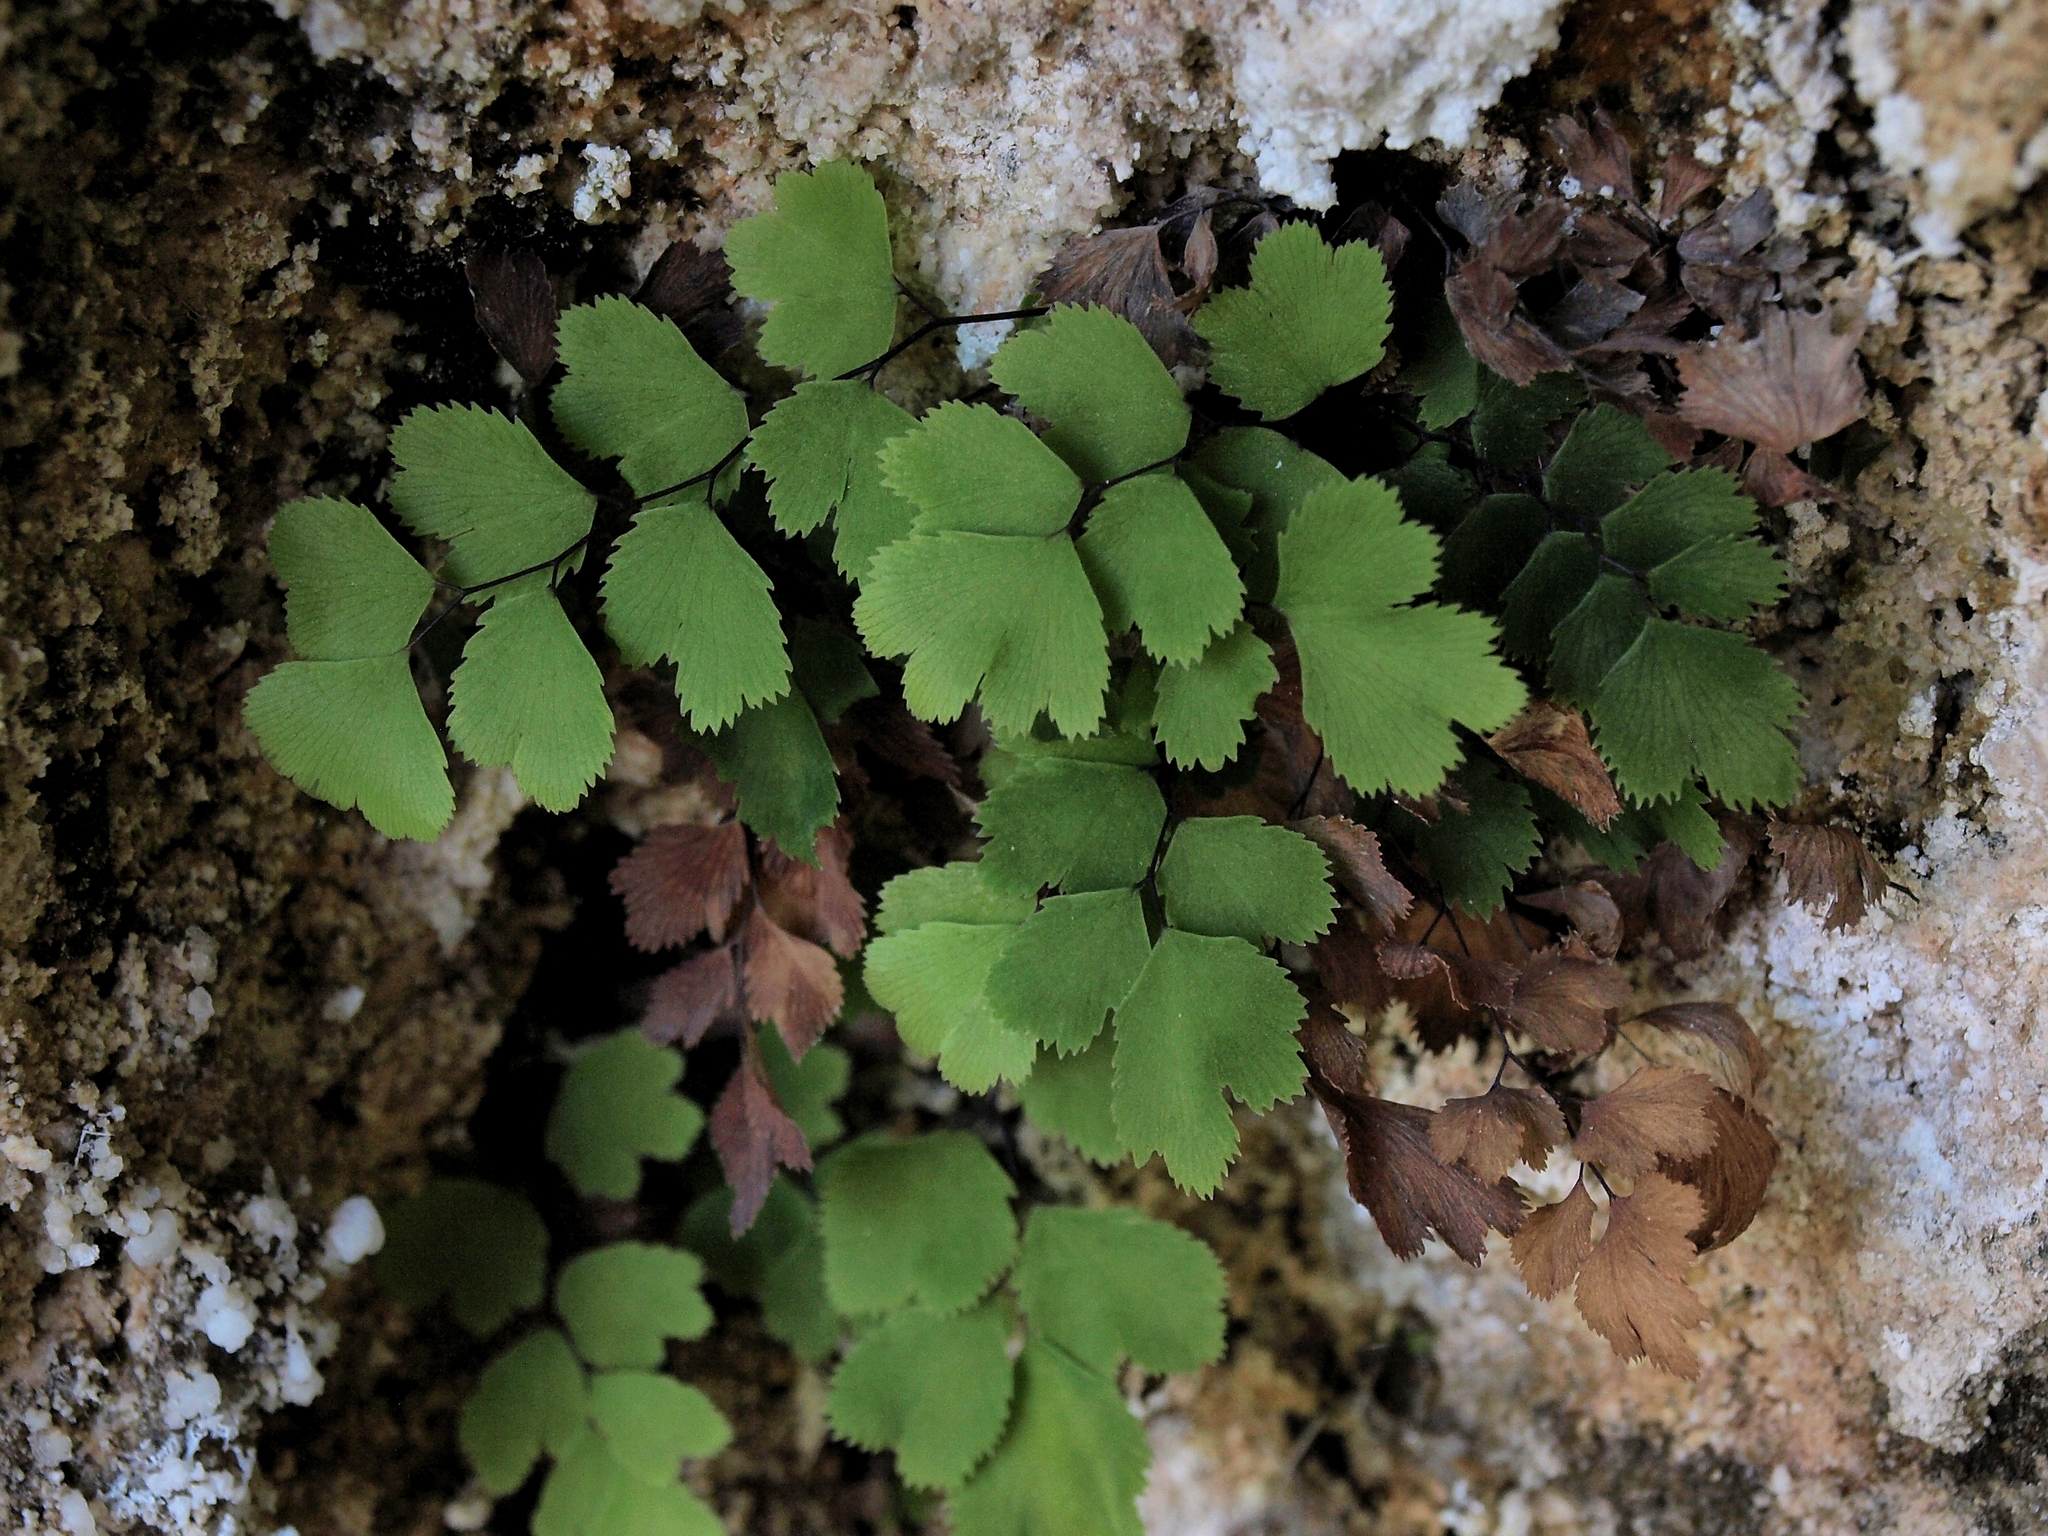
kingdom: Plantae
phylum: Tracheophyta
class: Polypodiopsida
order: Polypodiales
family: Pteridaceae
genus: Adiantum
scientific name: Adiantum capillus-veneris
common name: Maidenhair fern
